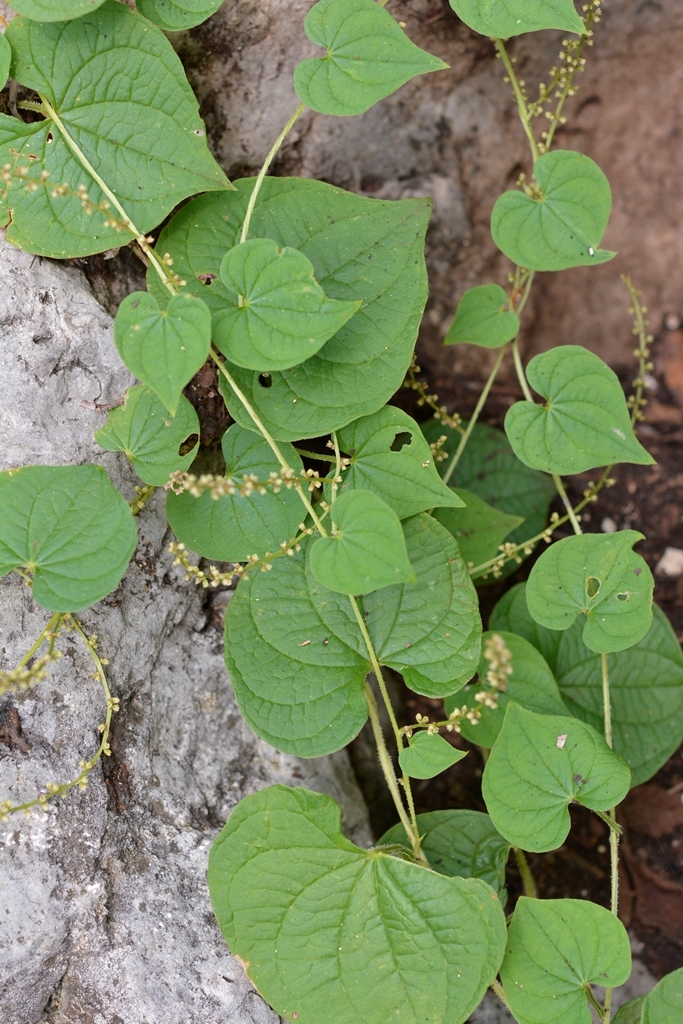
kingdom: Plantae
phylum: Tracheophyta
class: Liliopsida
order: Dioscoreales
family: Dioscoreaceae
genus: Dioscorea
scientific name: Dioscorea gomez-pompae
